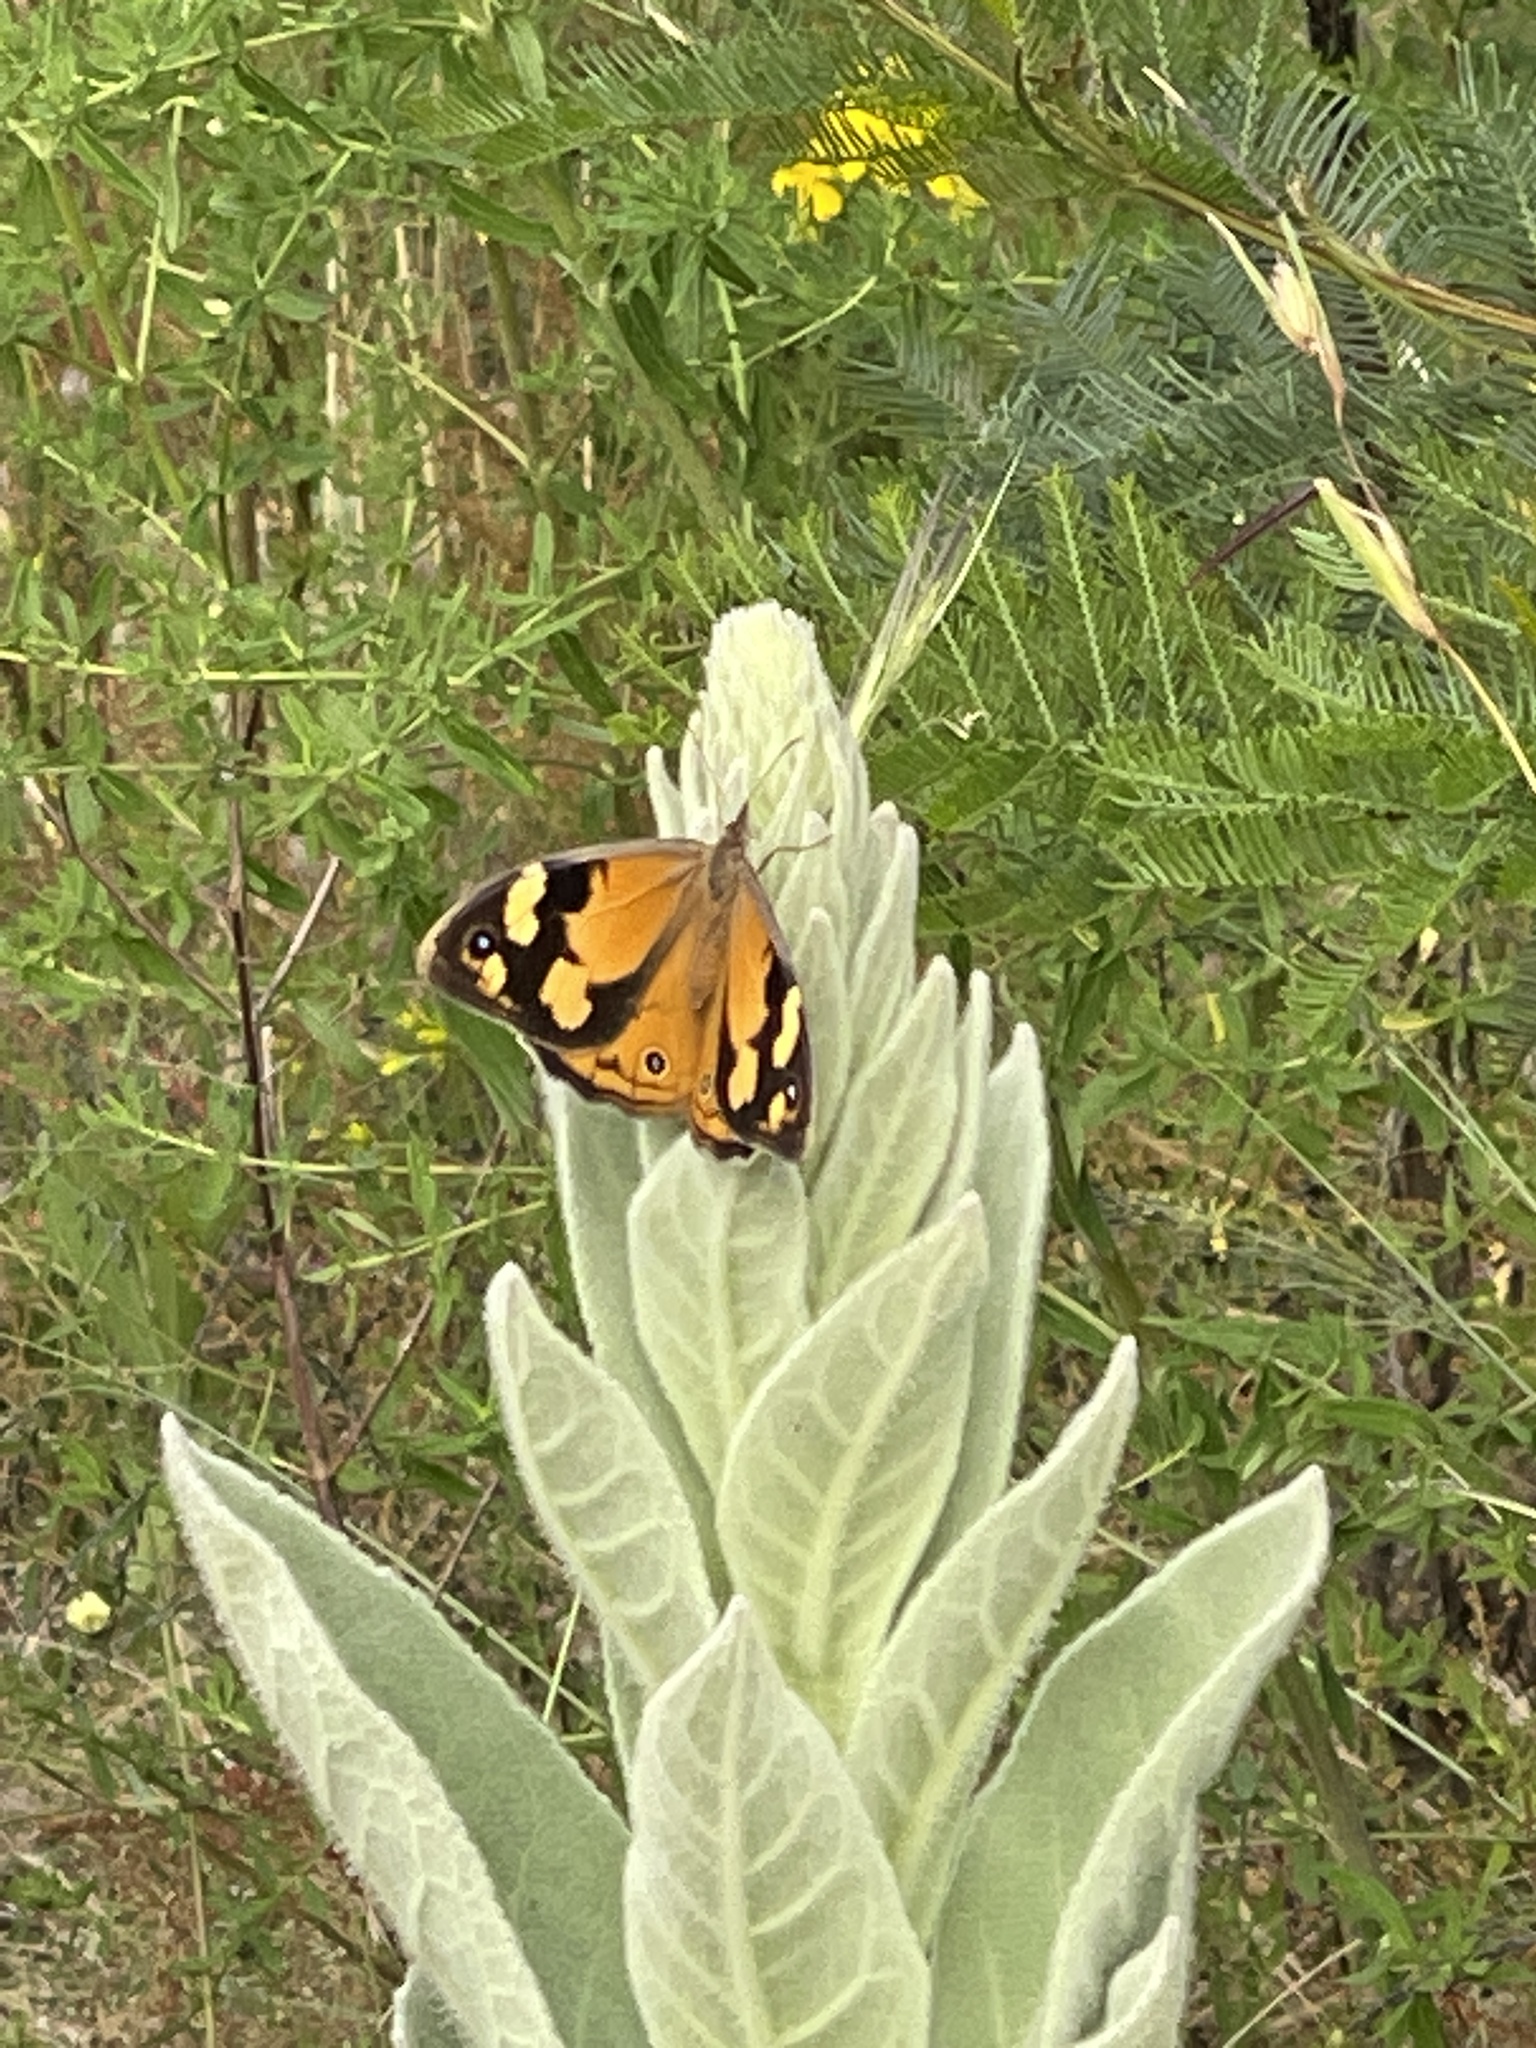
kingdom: Animalia
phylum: Arthropoda
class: Insecta
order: Lepidoptera
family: Nymphalidae
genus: Heteronympha
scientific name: Heteronympha merope
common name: Common brown
